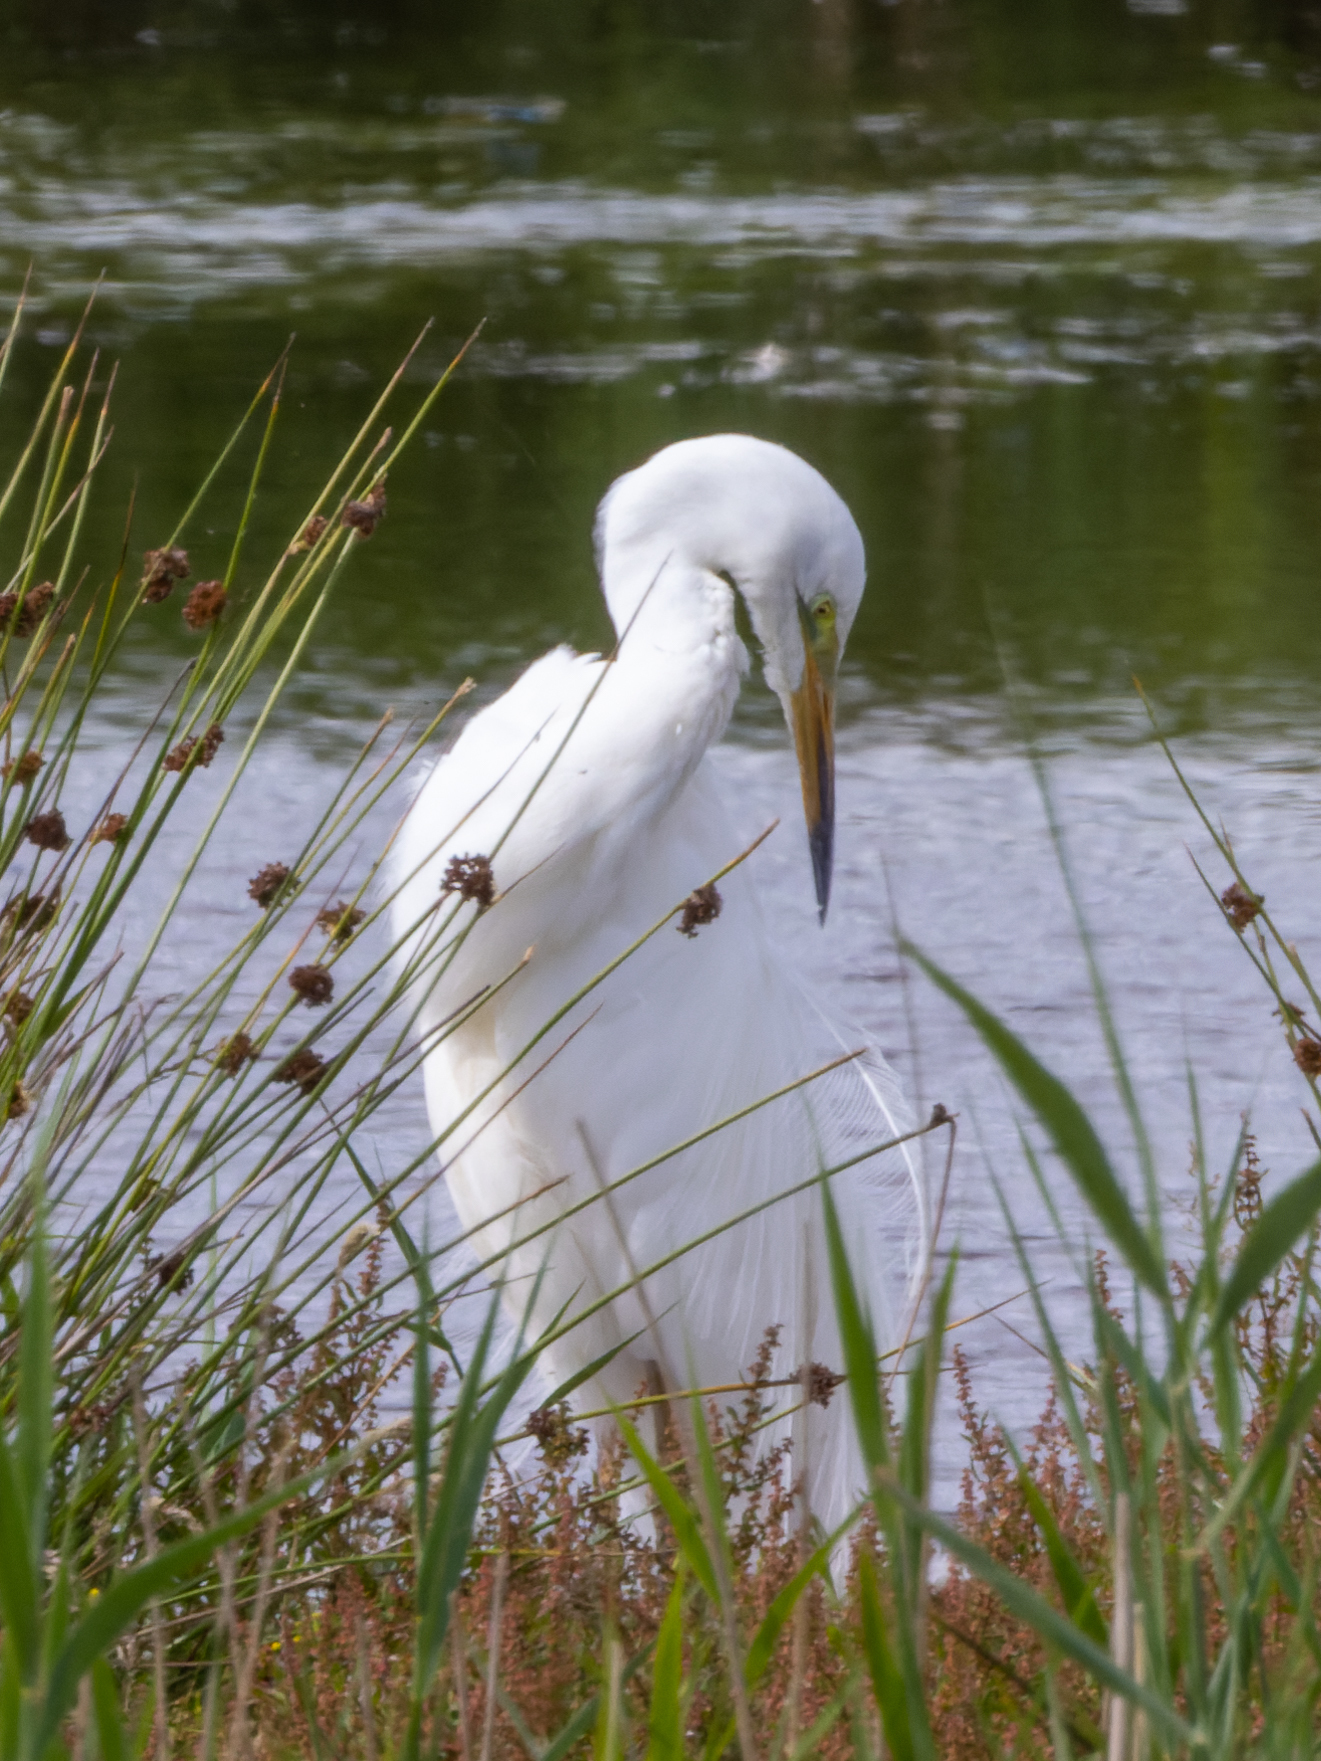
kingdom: Animalia
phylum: Chordata
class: Aves
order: Pelecaniformes
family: Ardeidae
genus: Ardea
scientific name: Ardea alba
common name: Great egret
